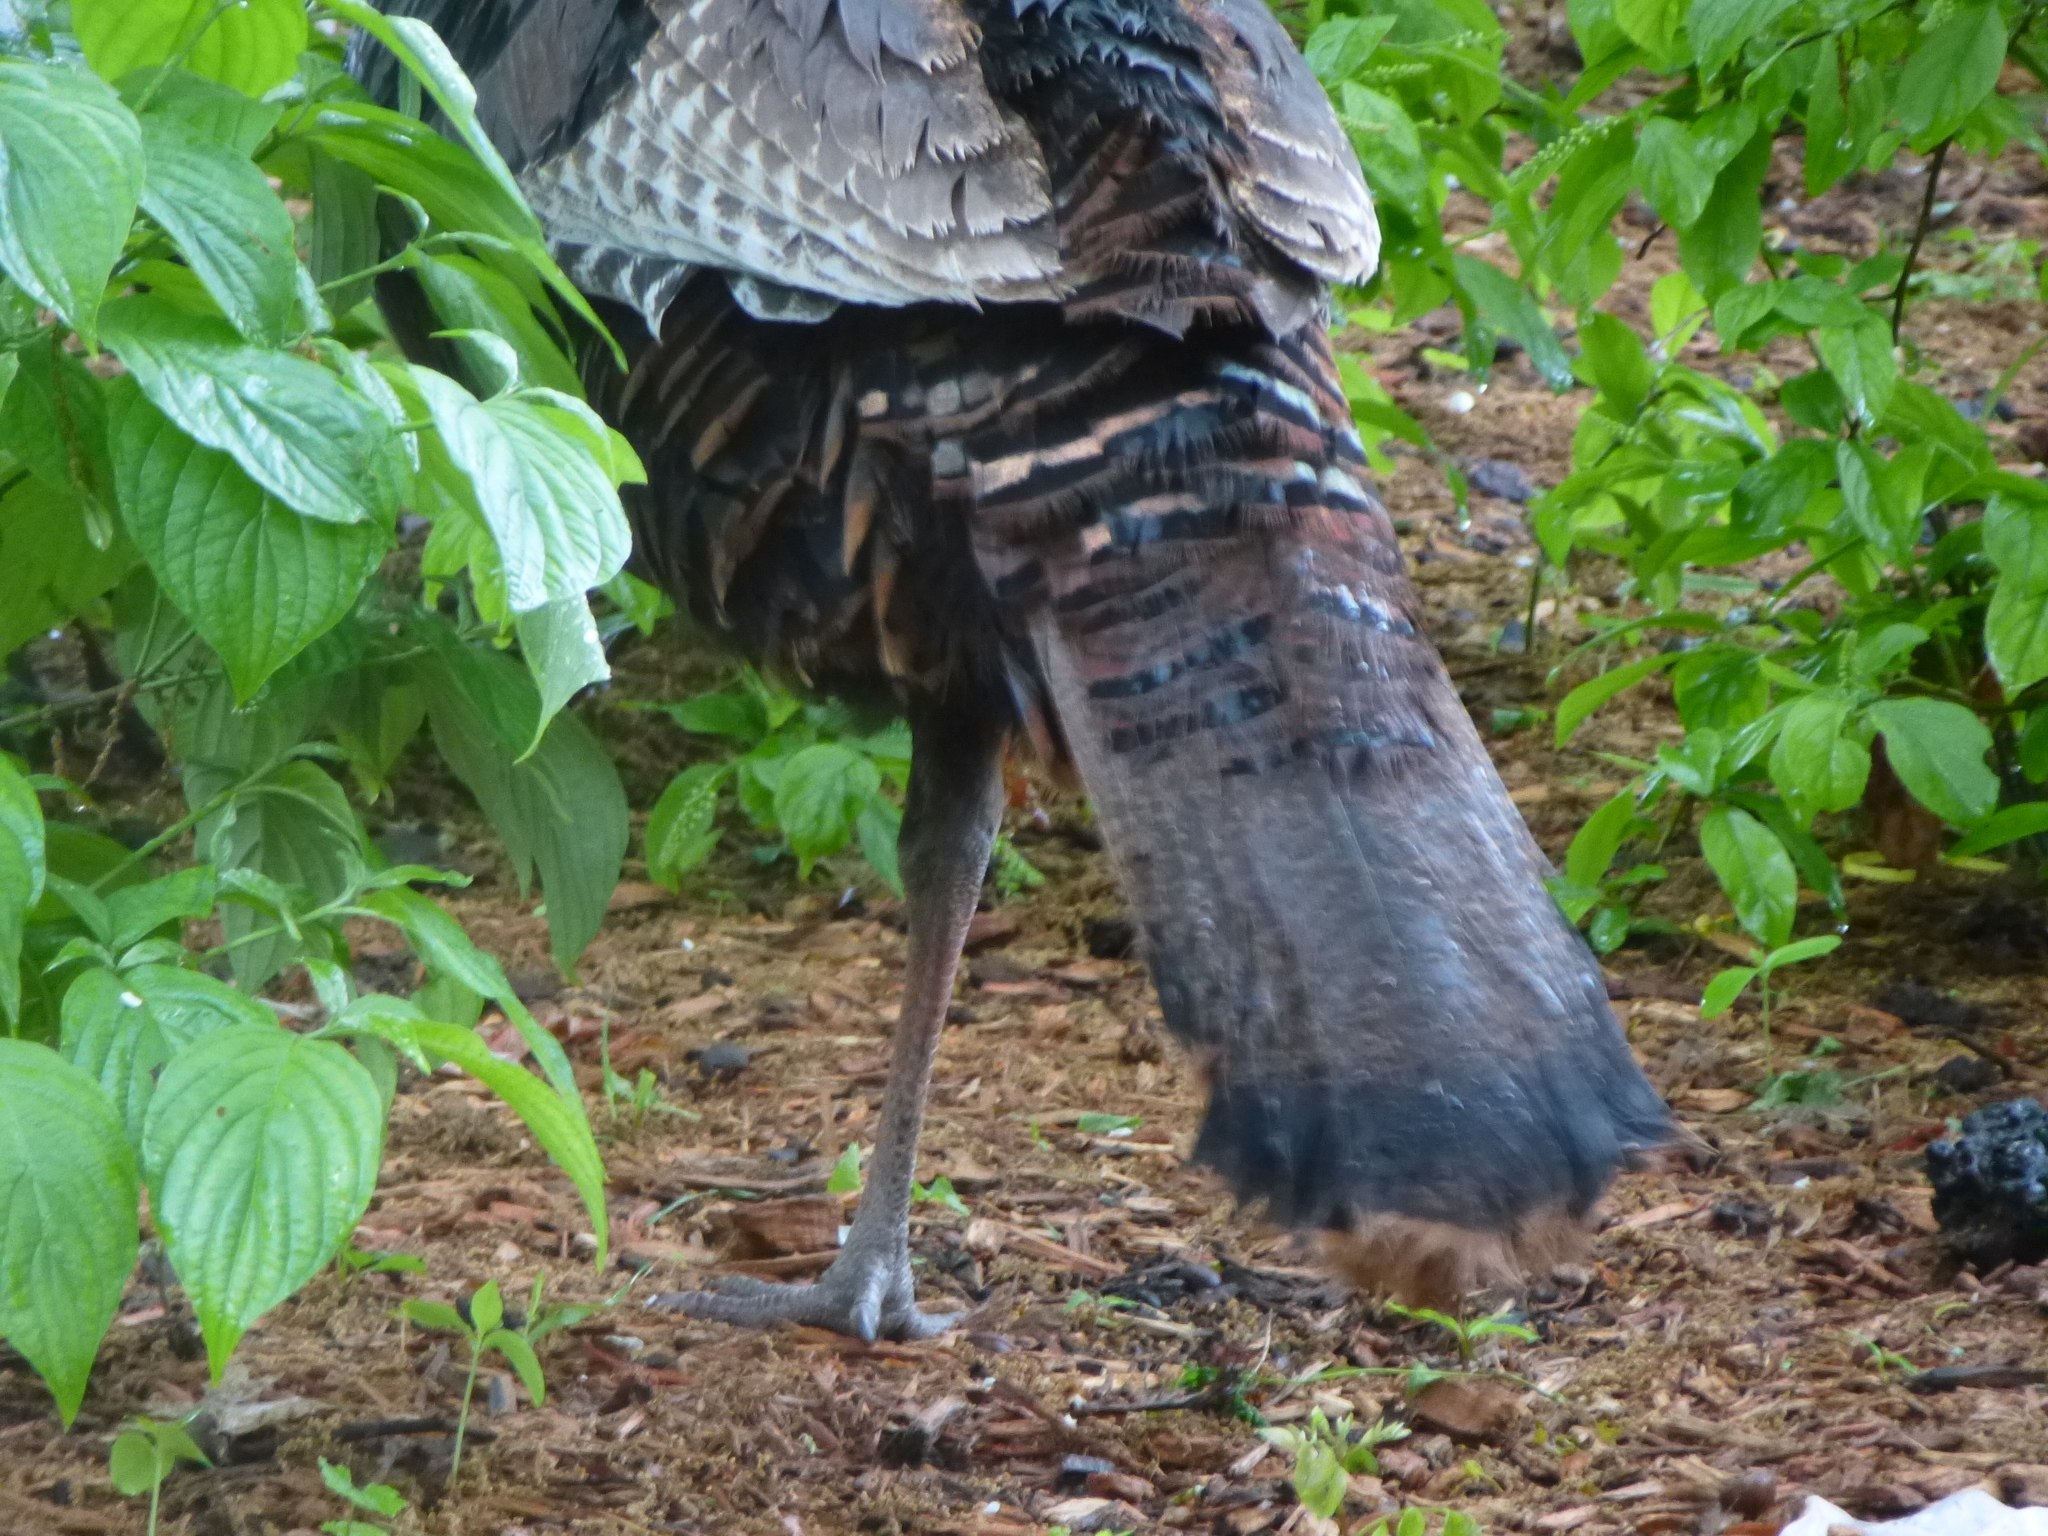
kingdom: Animalia
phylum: Chordata
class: Aves
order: Galliformes
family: Phasianidae
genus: Meleagris
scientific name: Meleagris gallopavo
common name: Wild turkey
